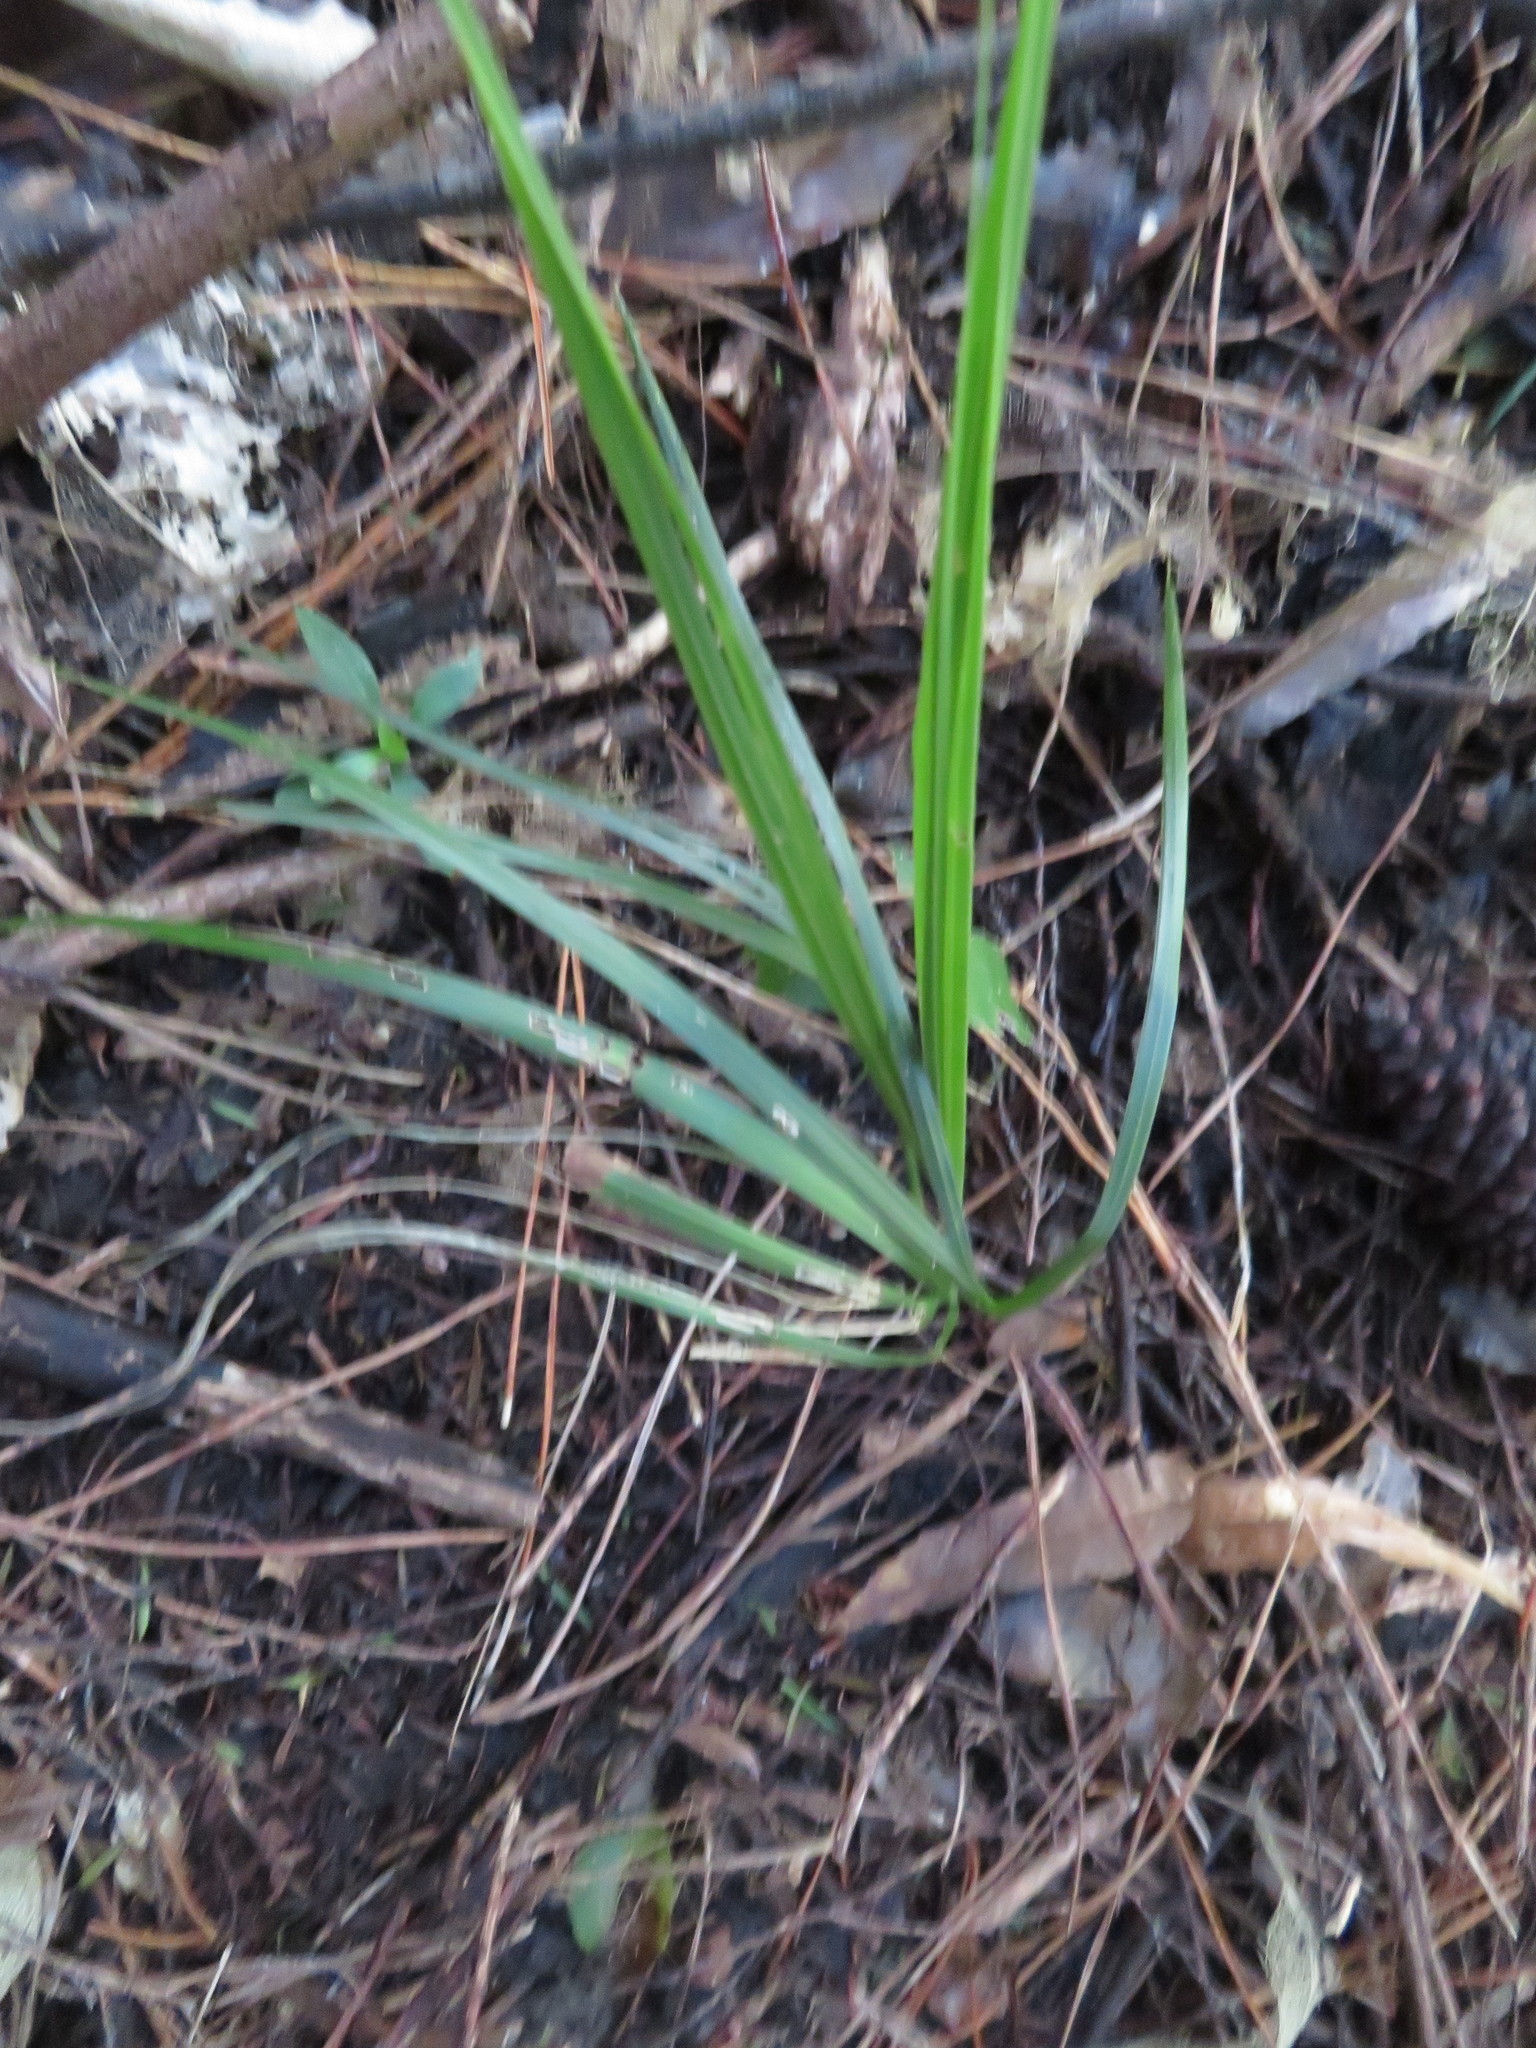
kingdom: Plantae
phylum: Tracheophyta
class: Liliopsida
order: Arecales
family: Arecaceae
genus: Rhopalostylis
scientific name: Rhopalostylis sapida
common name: Feather-duster palm
